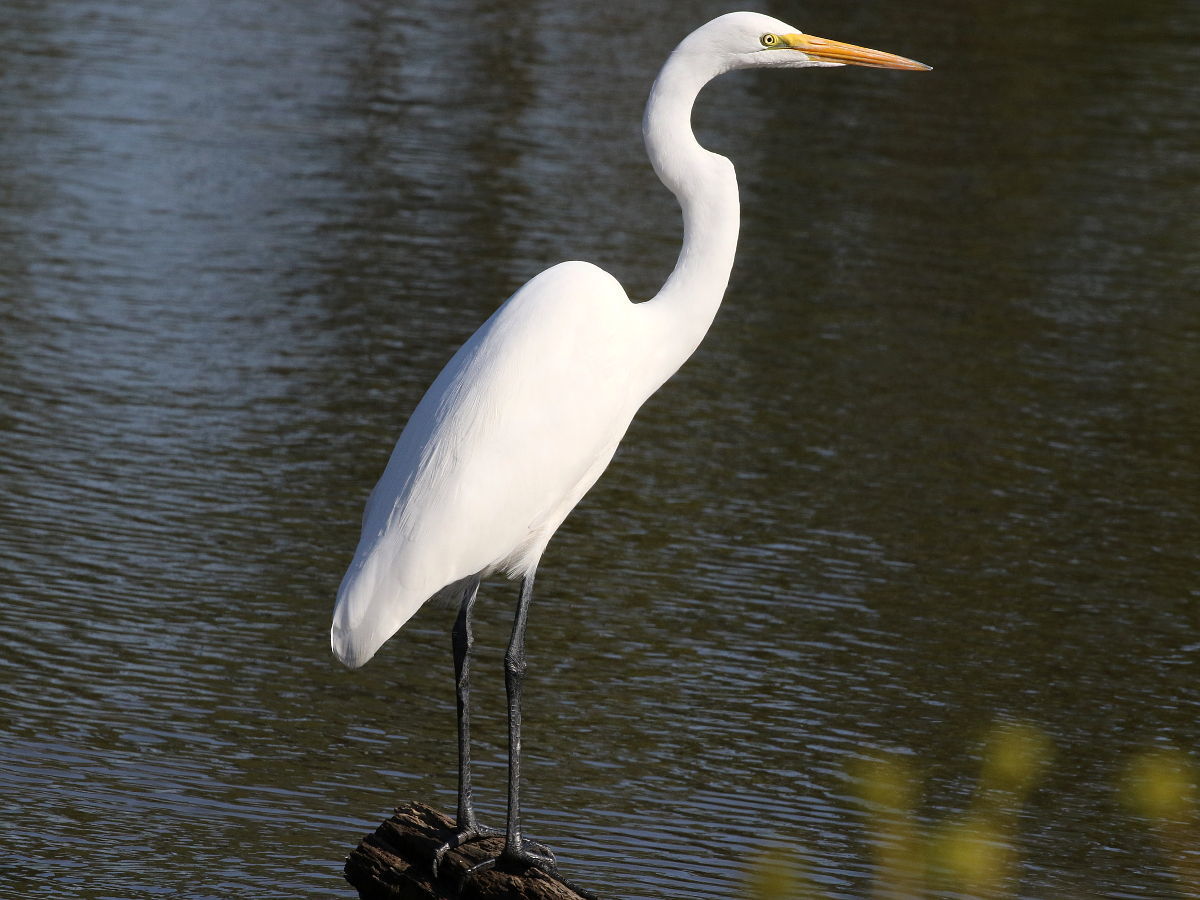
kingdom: Animalia
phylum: Chordata
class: Aves
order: Pelecaniformes
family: Ardeidae
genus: Ardea
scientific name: Ardea alba
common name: Great egret
